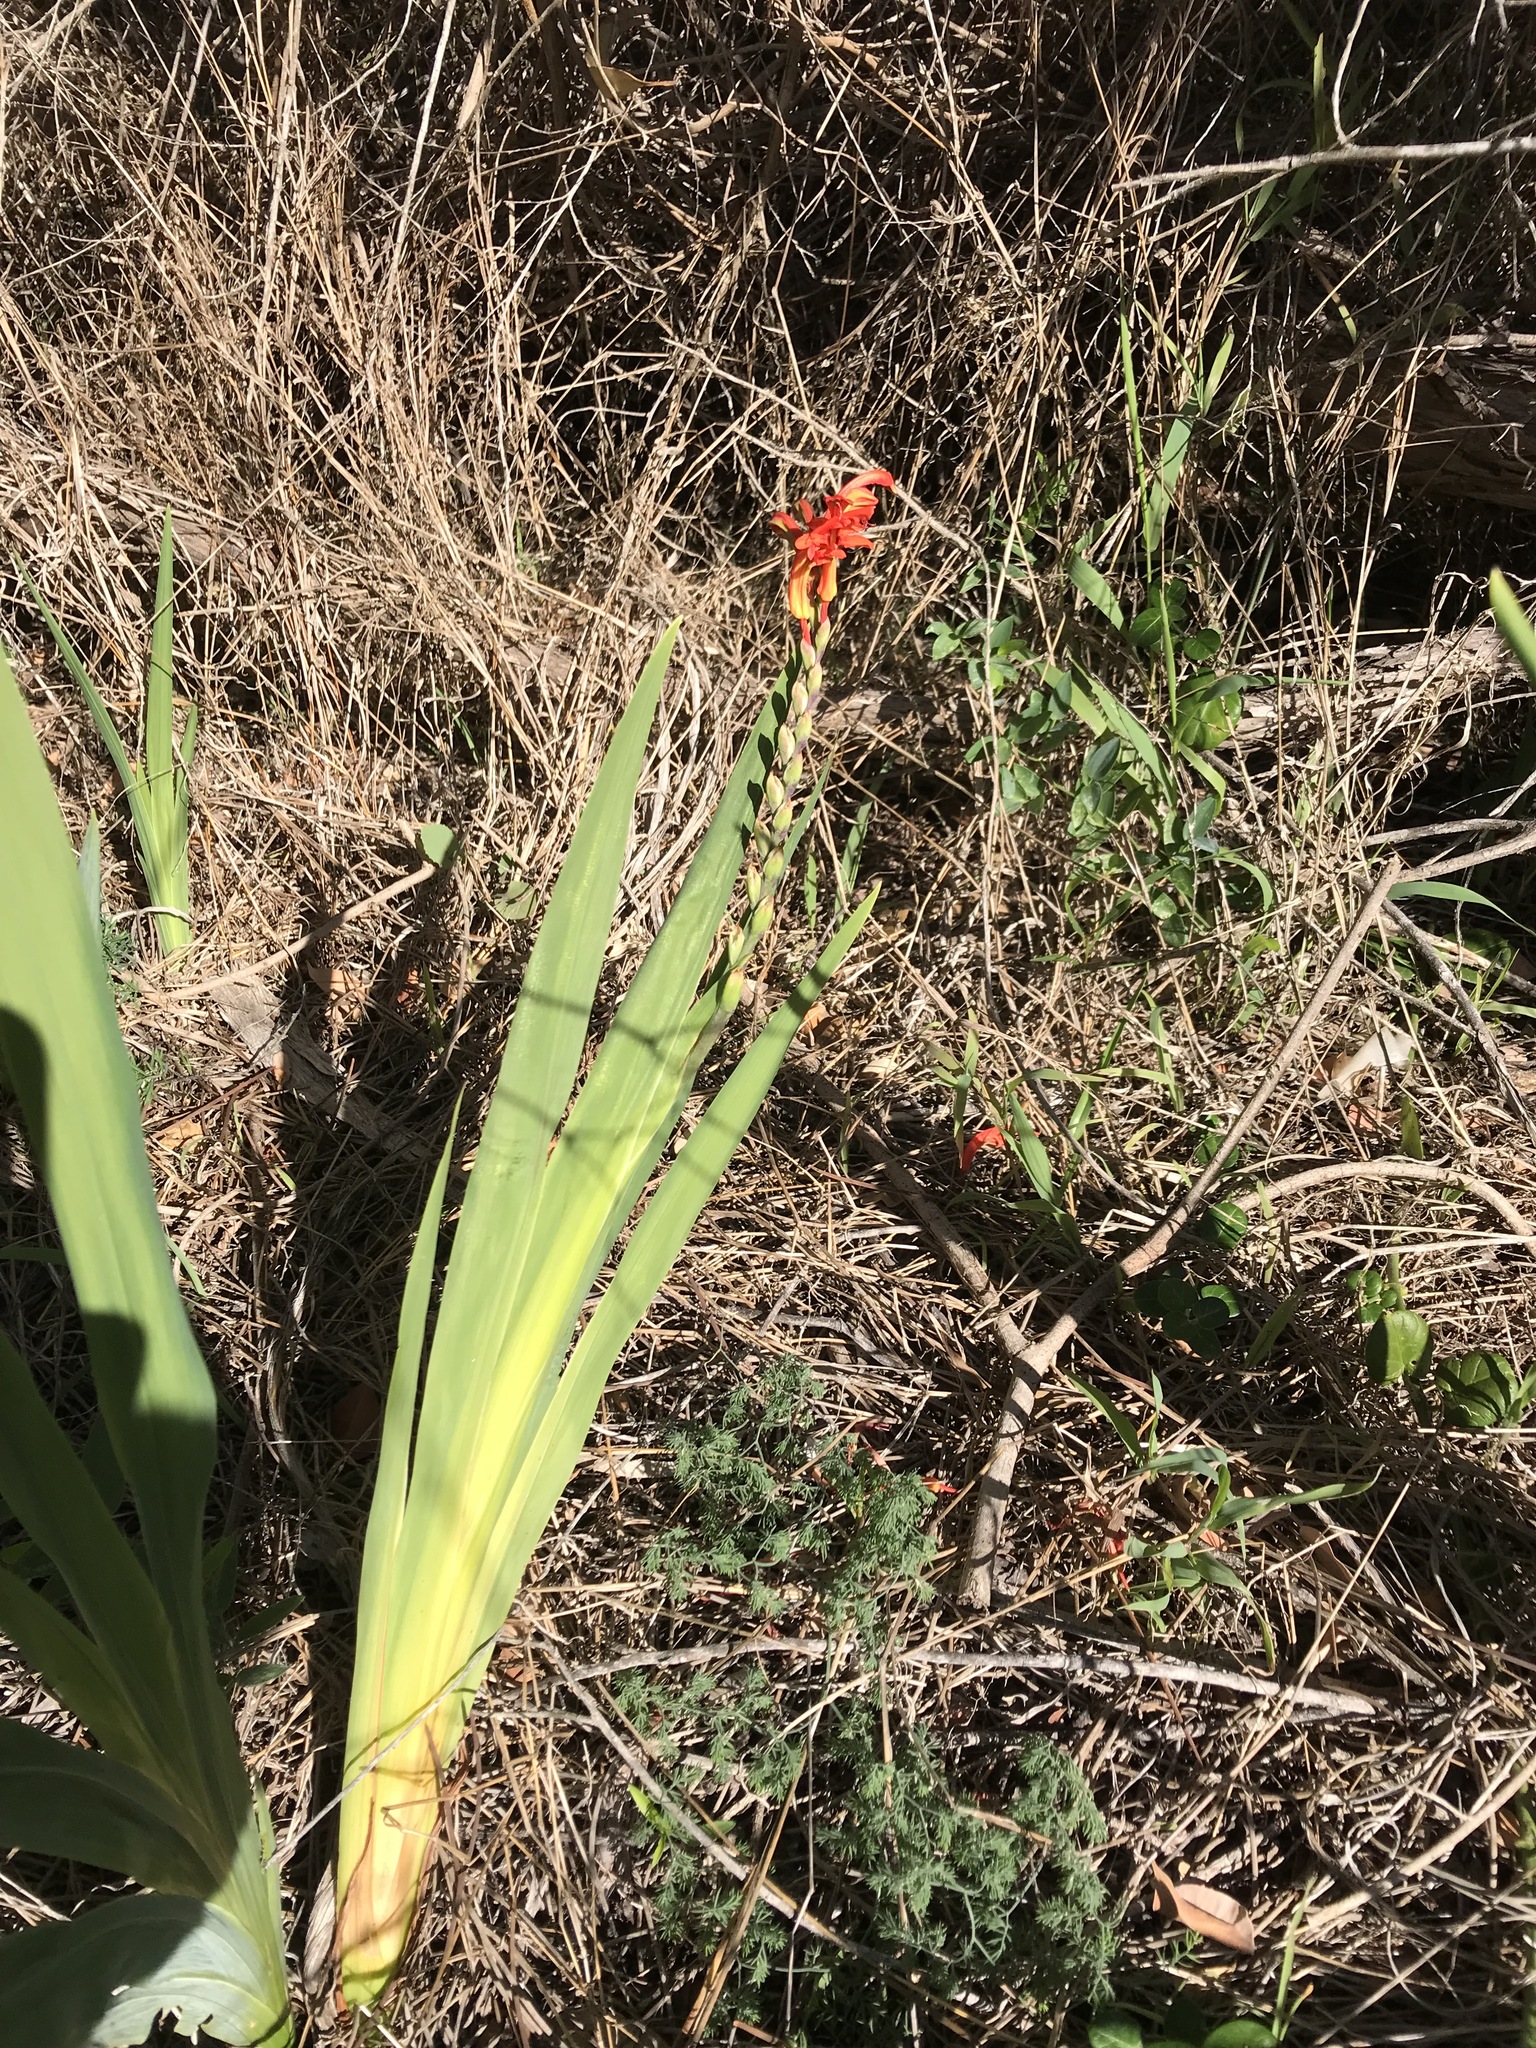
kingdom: Plantae
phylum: Tracheophyta
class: Liliopsida
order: Asparagales
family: Iridaceae
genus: Chasmanthe
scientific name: Chasmanthe aethiopica
